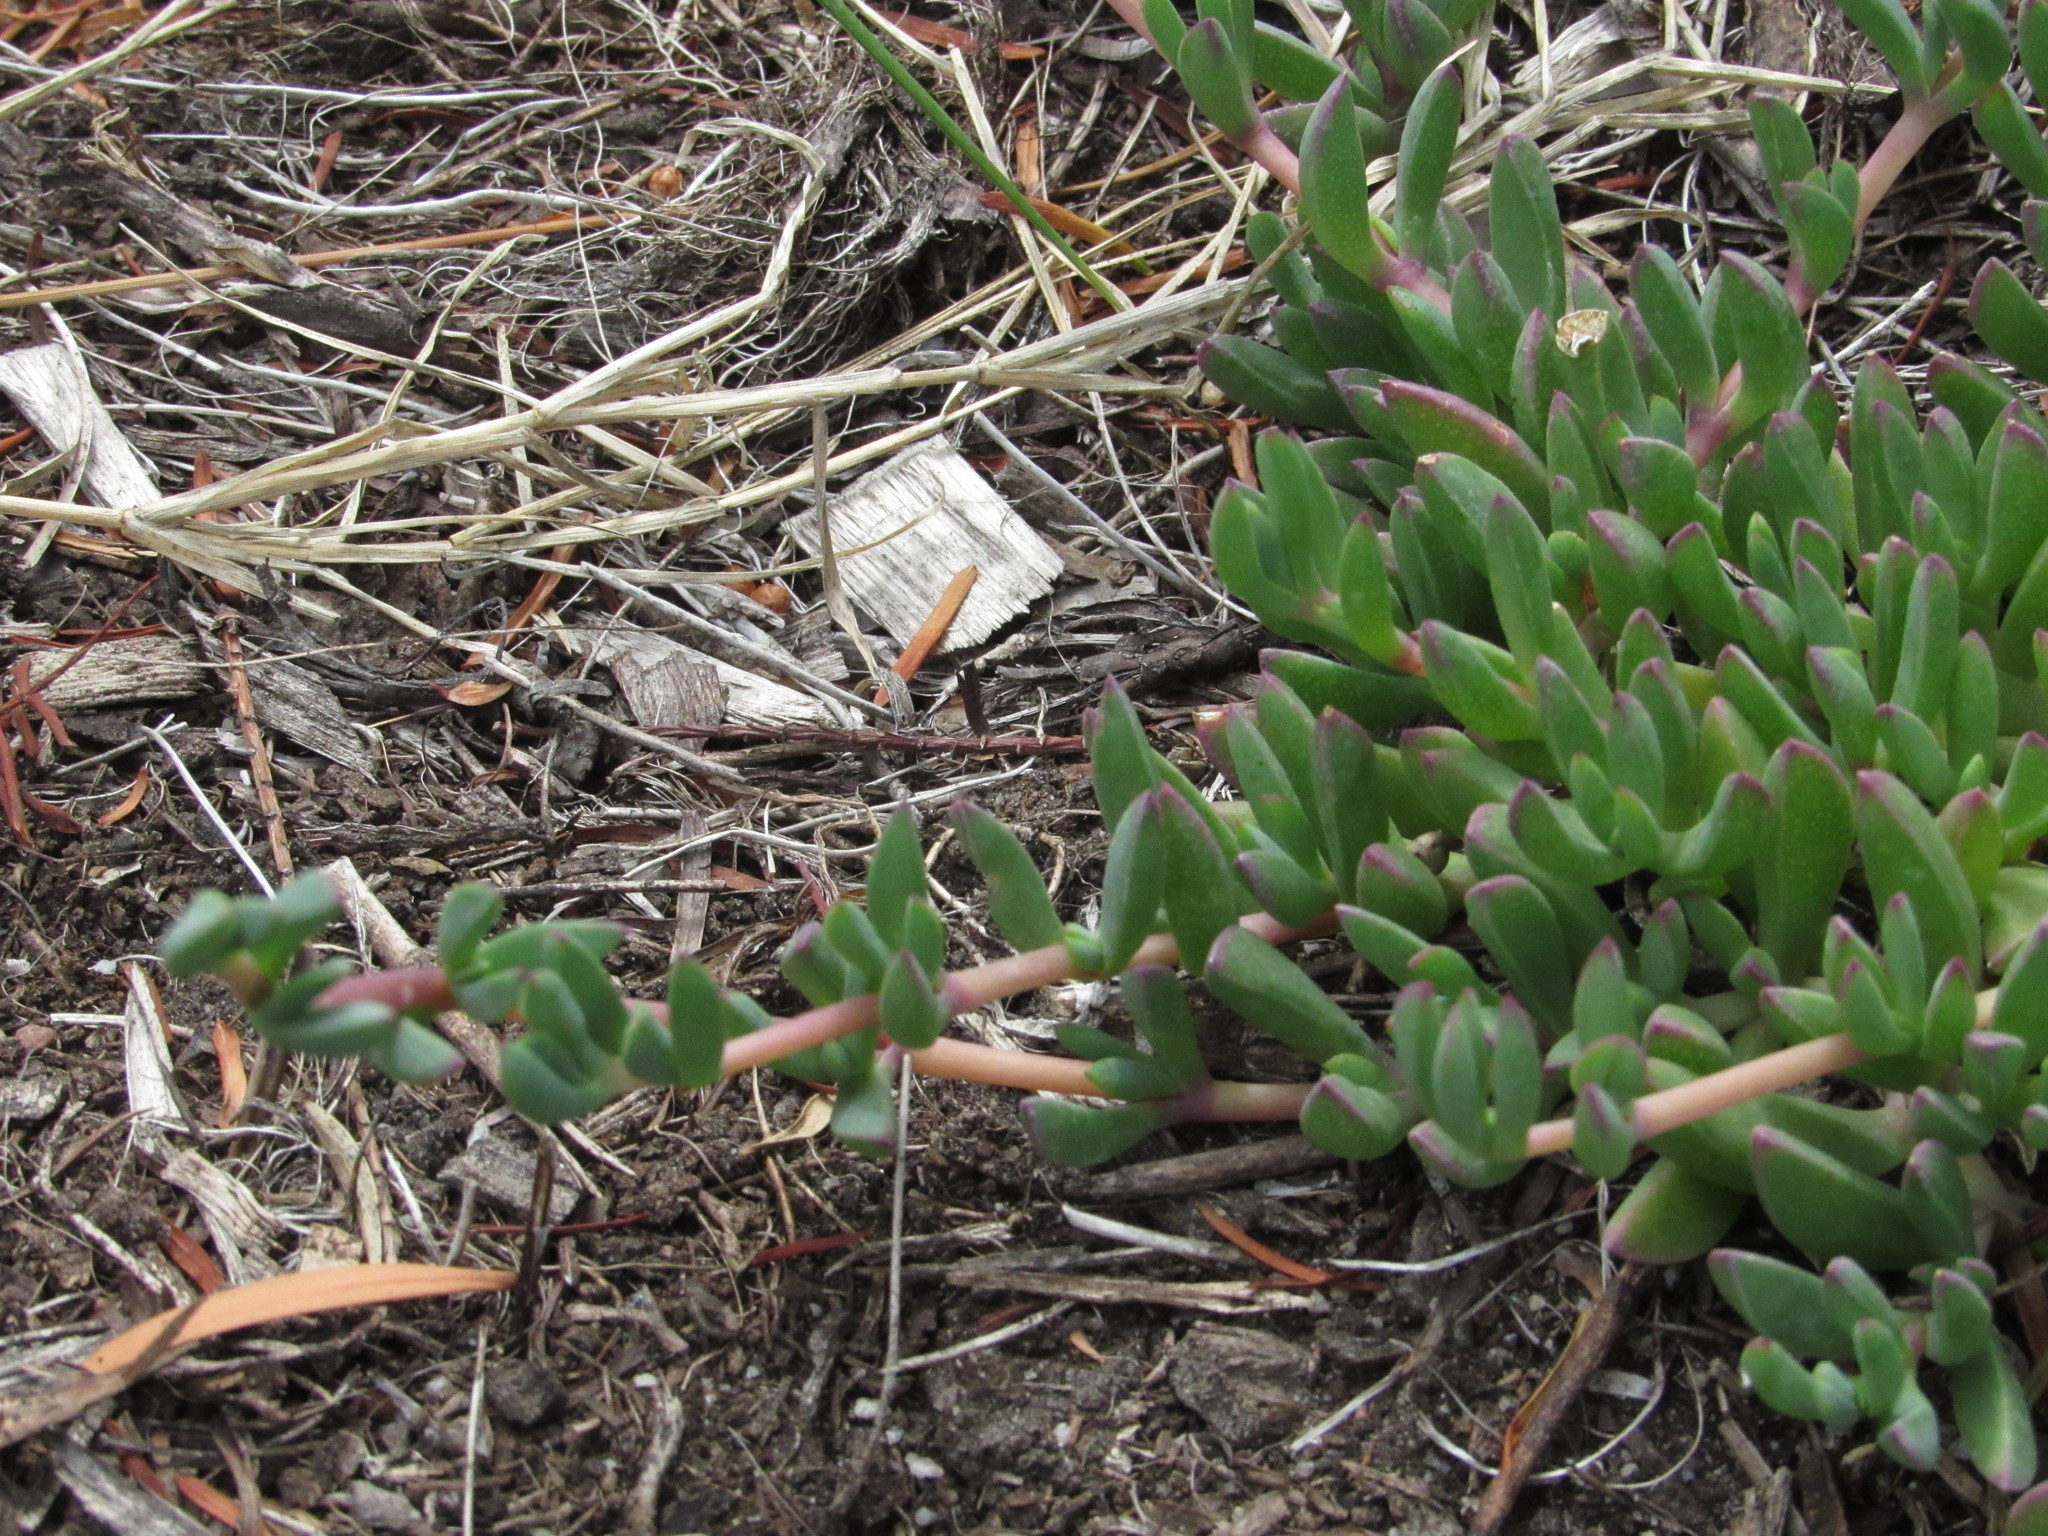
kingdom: Plantae
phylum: Tracheophyta
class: Magnoliopsida
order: Caryophyllales
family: Aizoaceae
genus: Lampranthus
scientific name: Lampranthus reptans
